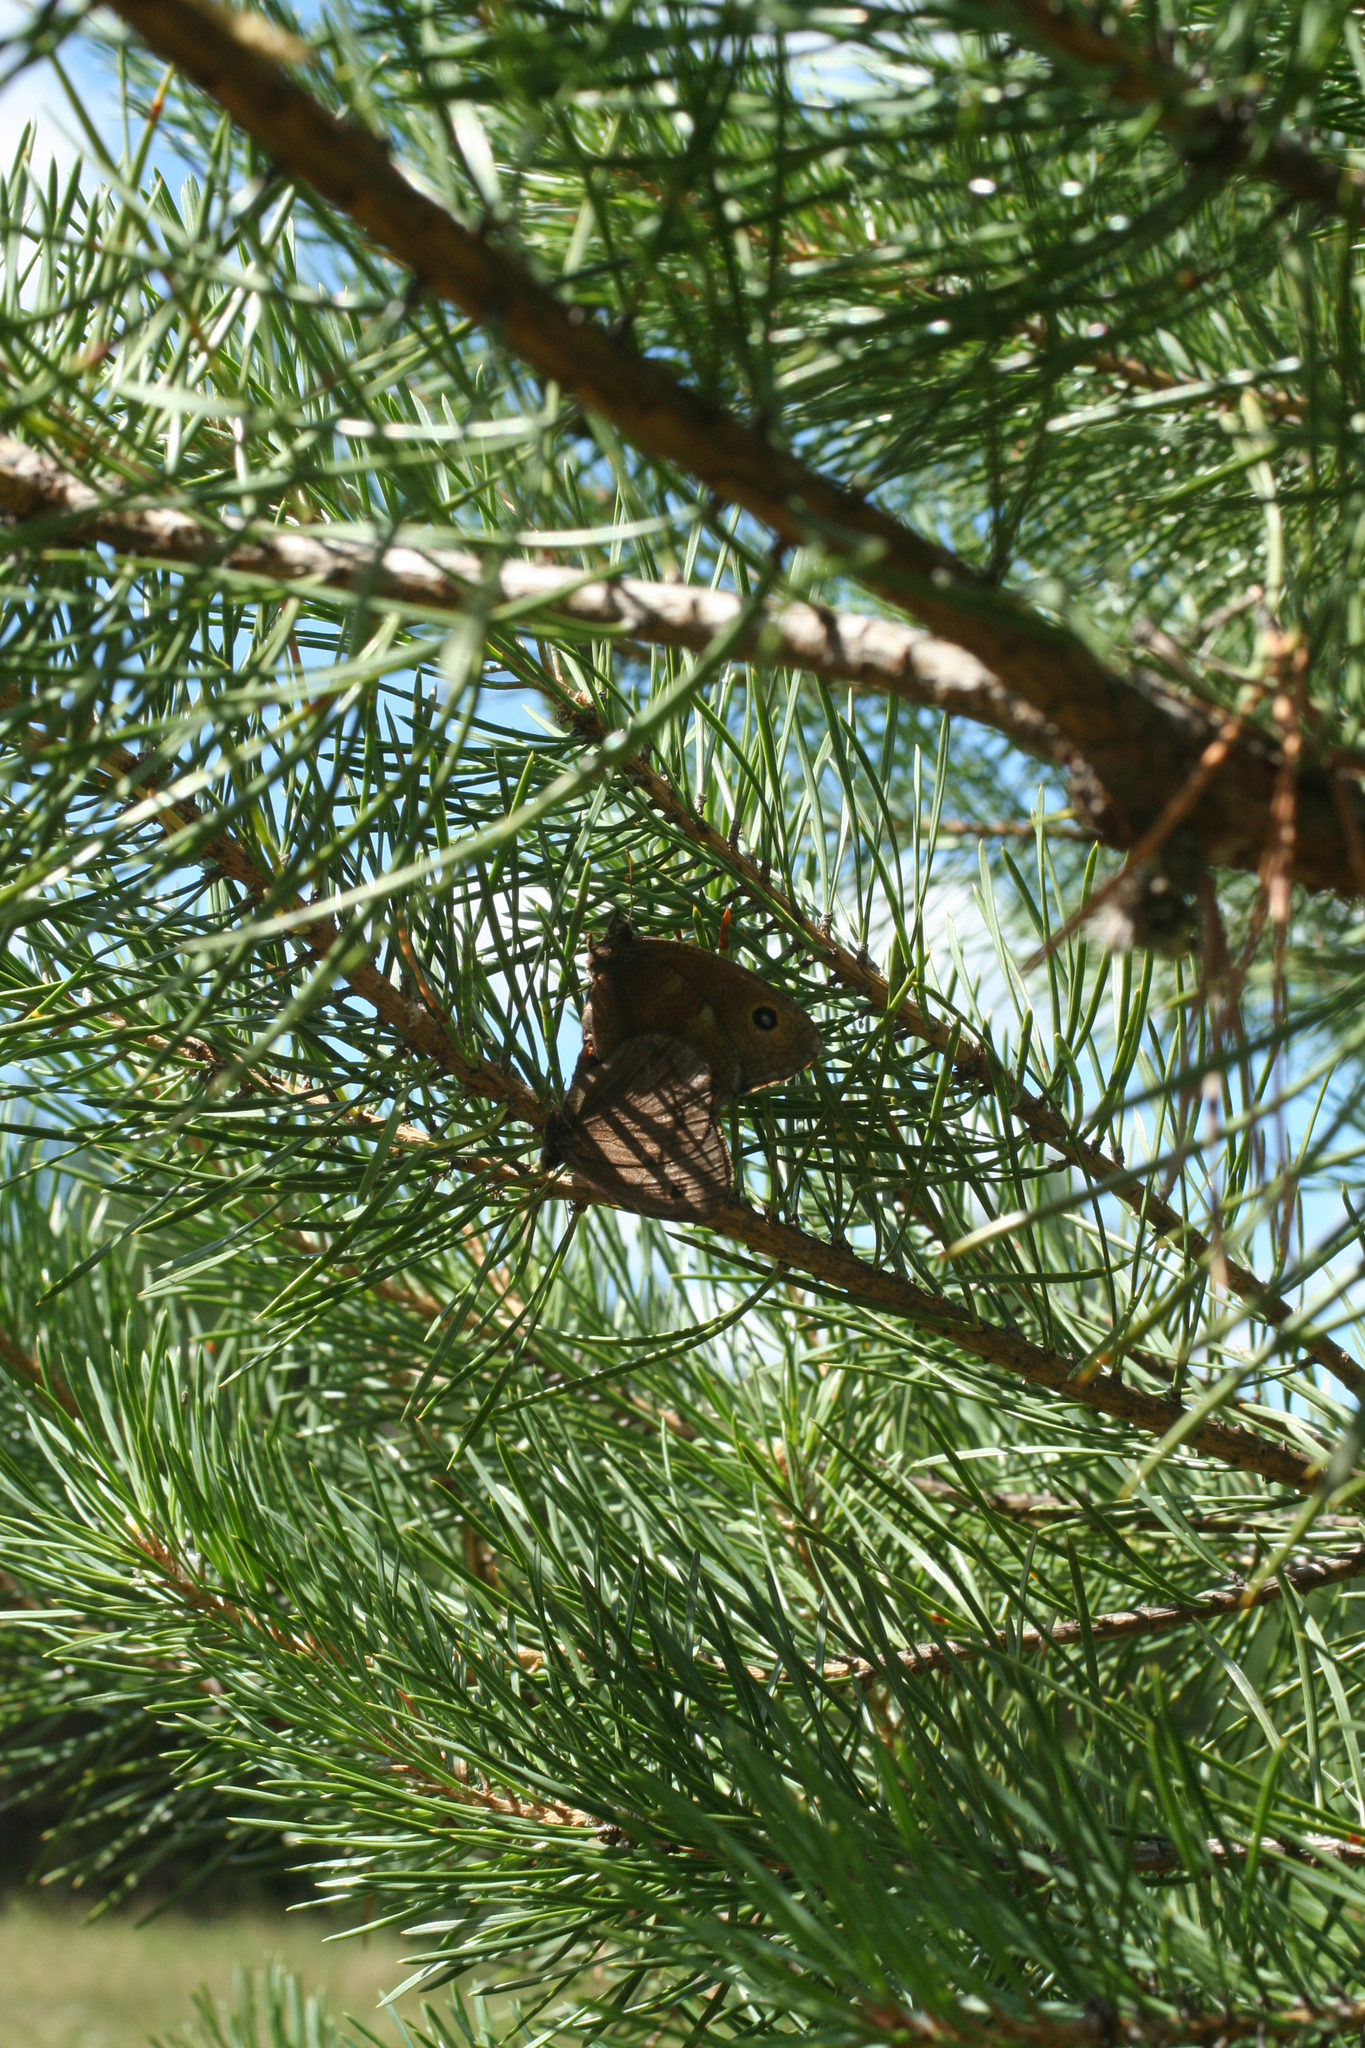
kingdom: Animalia
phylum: Arthropoda
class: Insecta
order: Lepidoptera
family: Nymphalidae
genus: Minois
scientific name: Minois dryas
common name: Dryad
